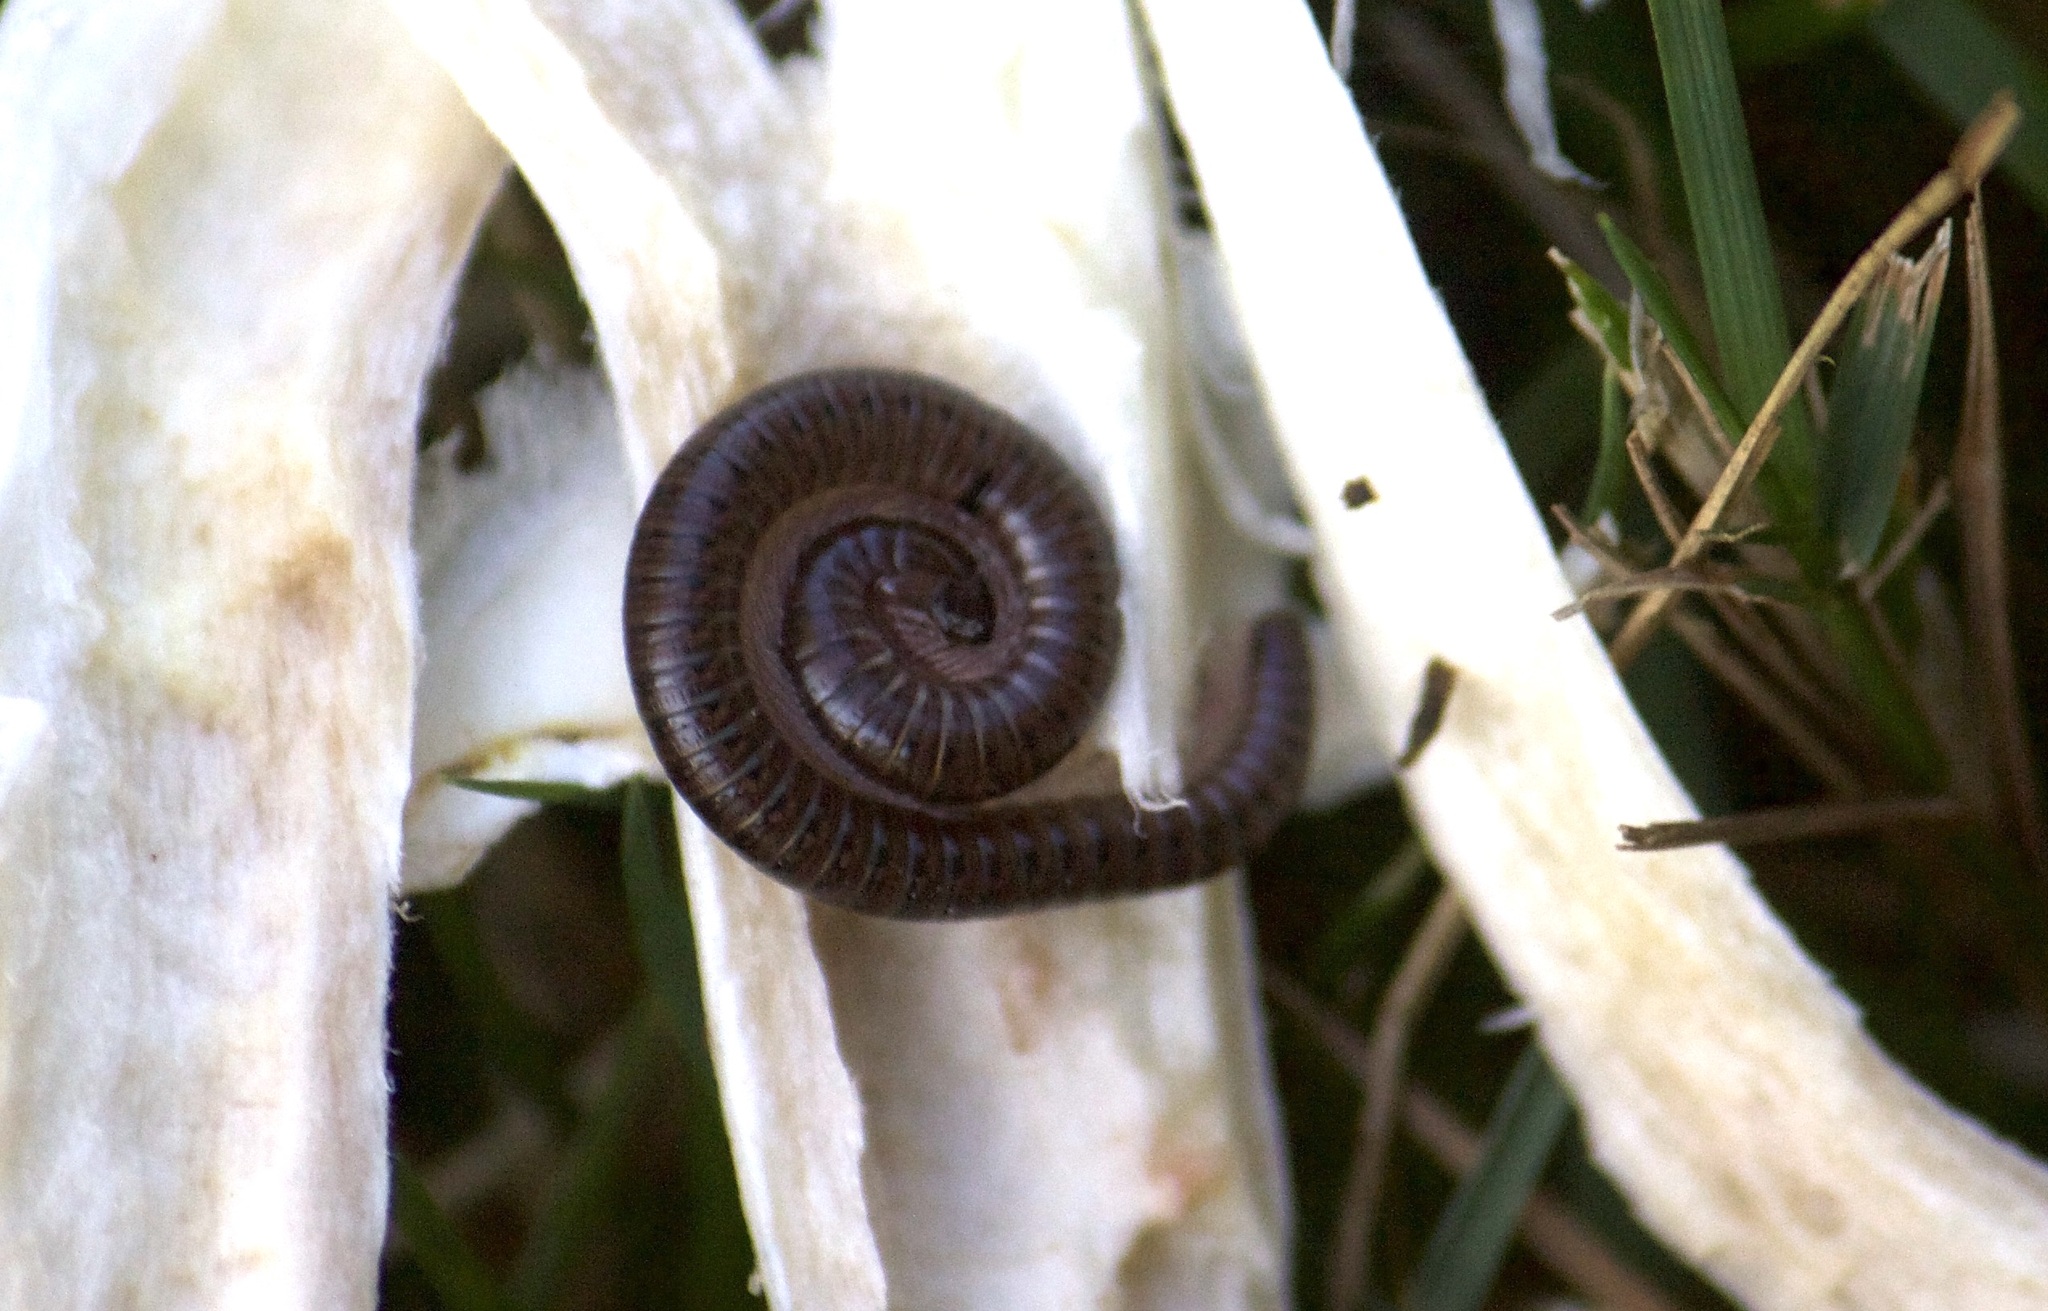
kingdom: Animalia
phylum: Arthropoda
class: Diplopoda
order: Julida
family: Parajulidae
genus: Ptyoiulus
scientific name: Ptyoiulus impressus
